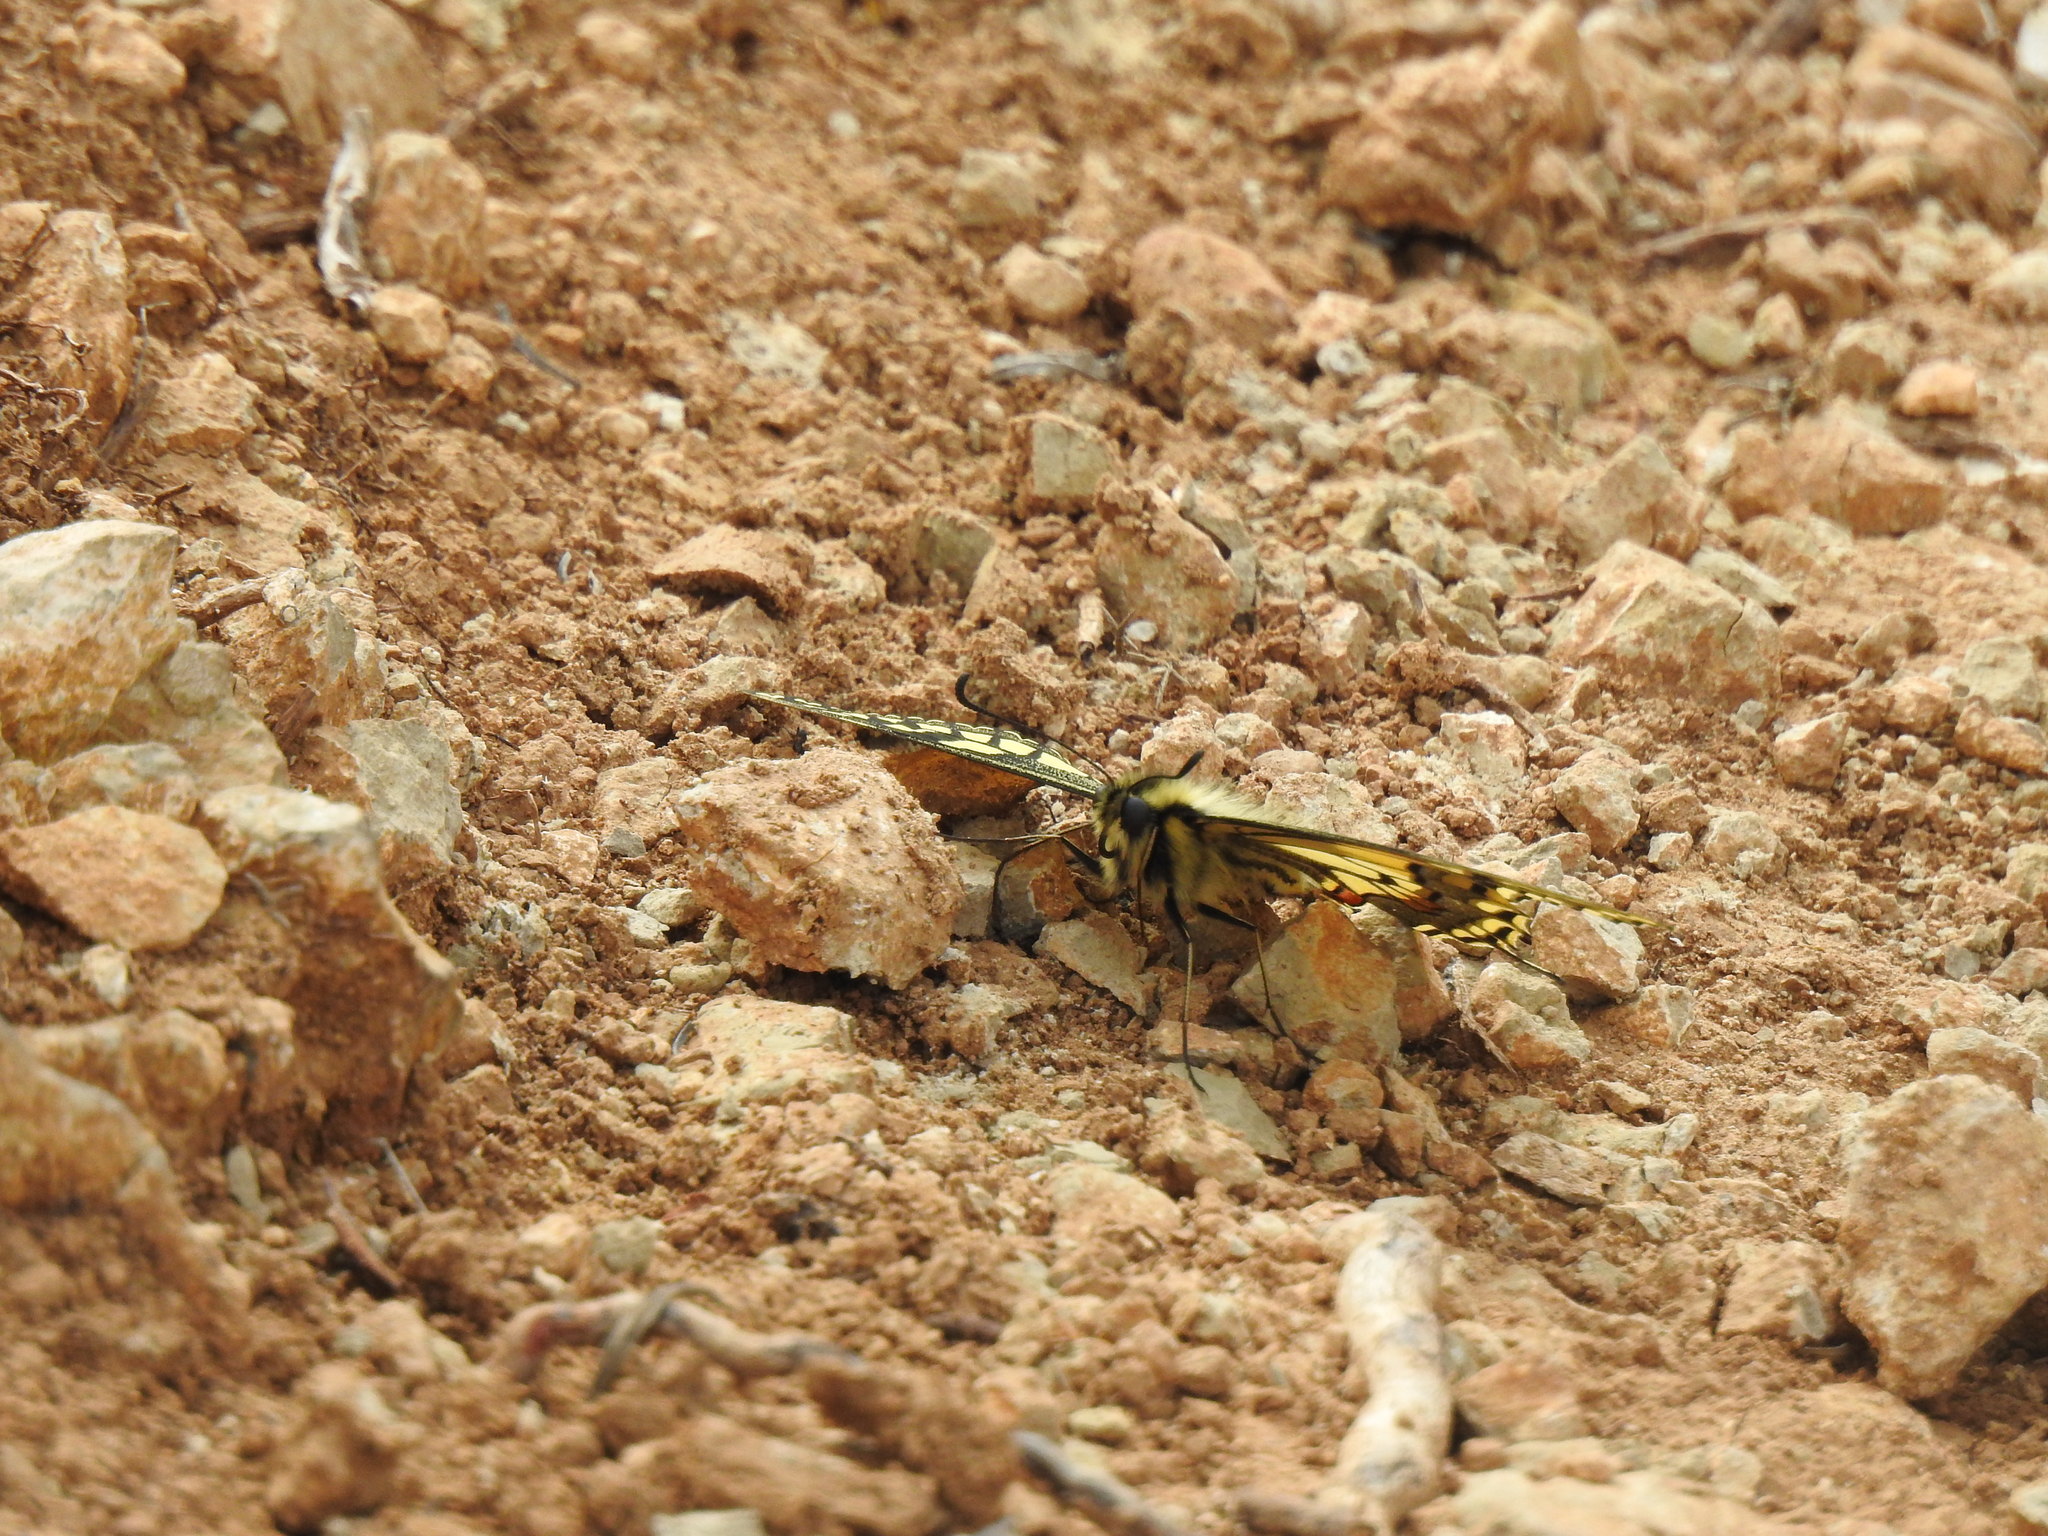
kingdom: Animalia
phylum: Arthropoda
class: Insecta
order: Lepidoptera
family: Papilionidae
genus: Papilio
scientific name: Papilio machaon
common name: Swallowtail
